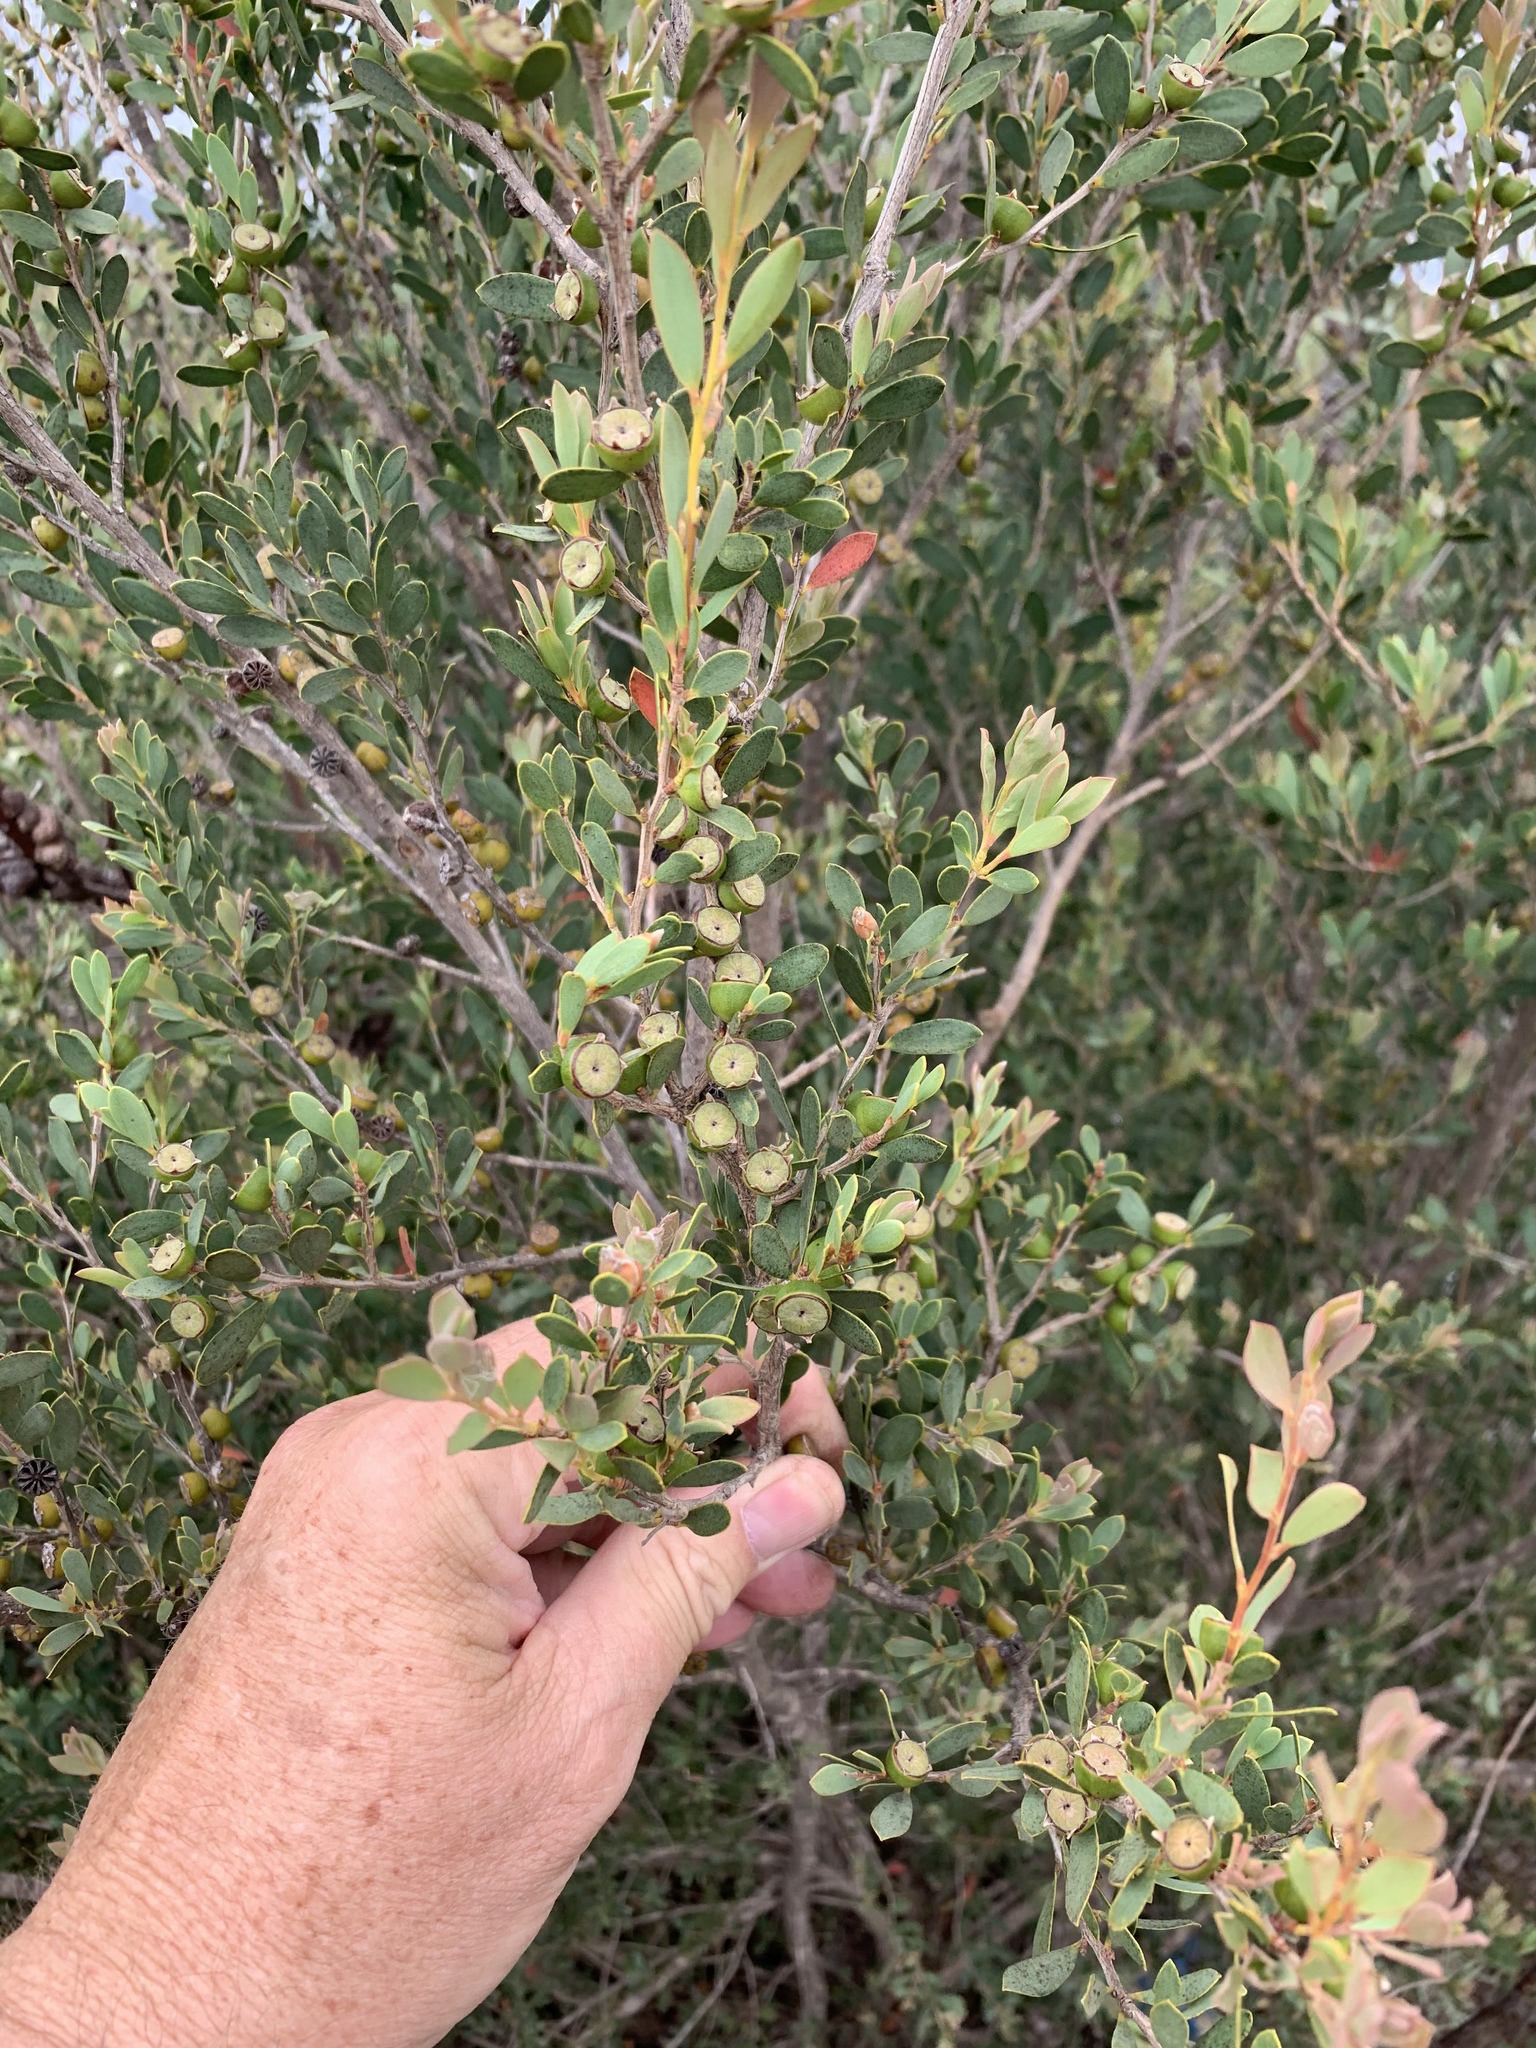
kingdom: Plantae
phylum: Tracheophyta
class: Magnoliopsida
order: Myrtales
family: Myrtaceae
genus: Leptospermum
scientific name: Leptospermum laevigatum
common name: Australian teatree
